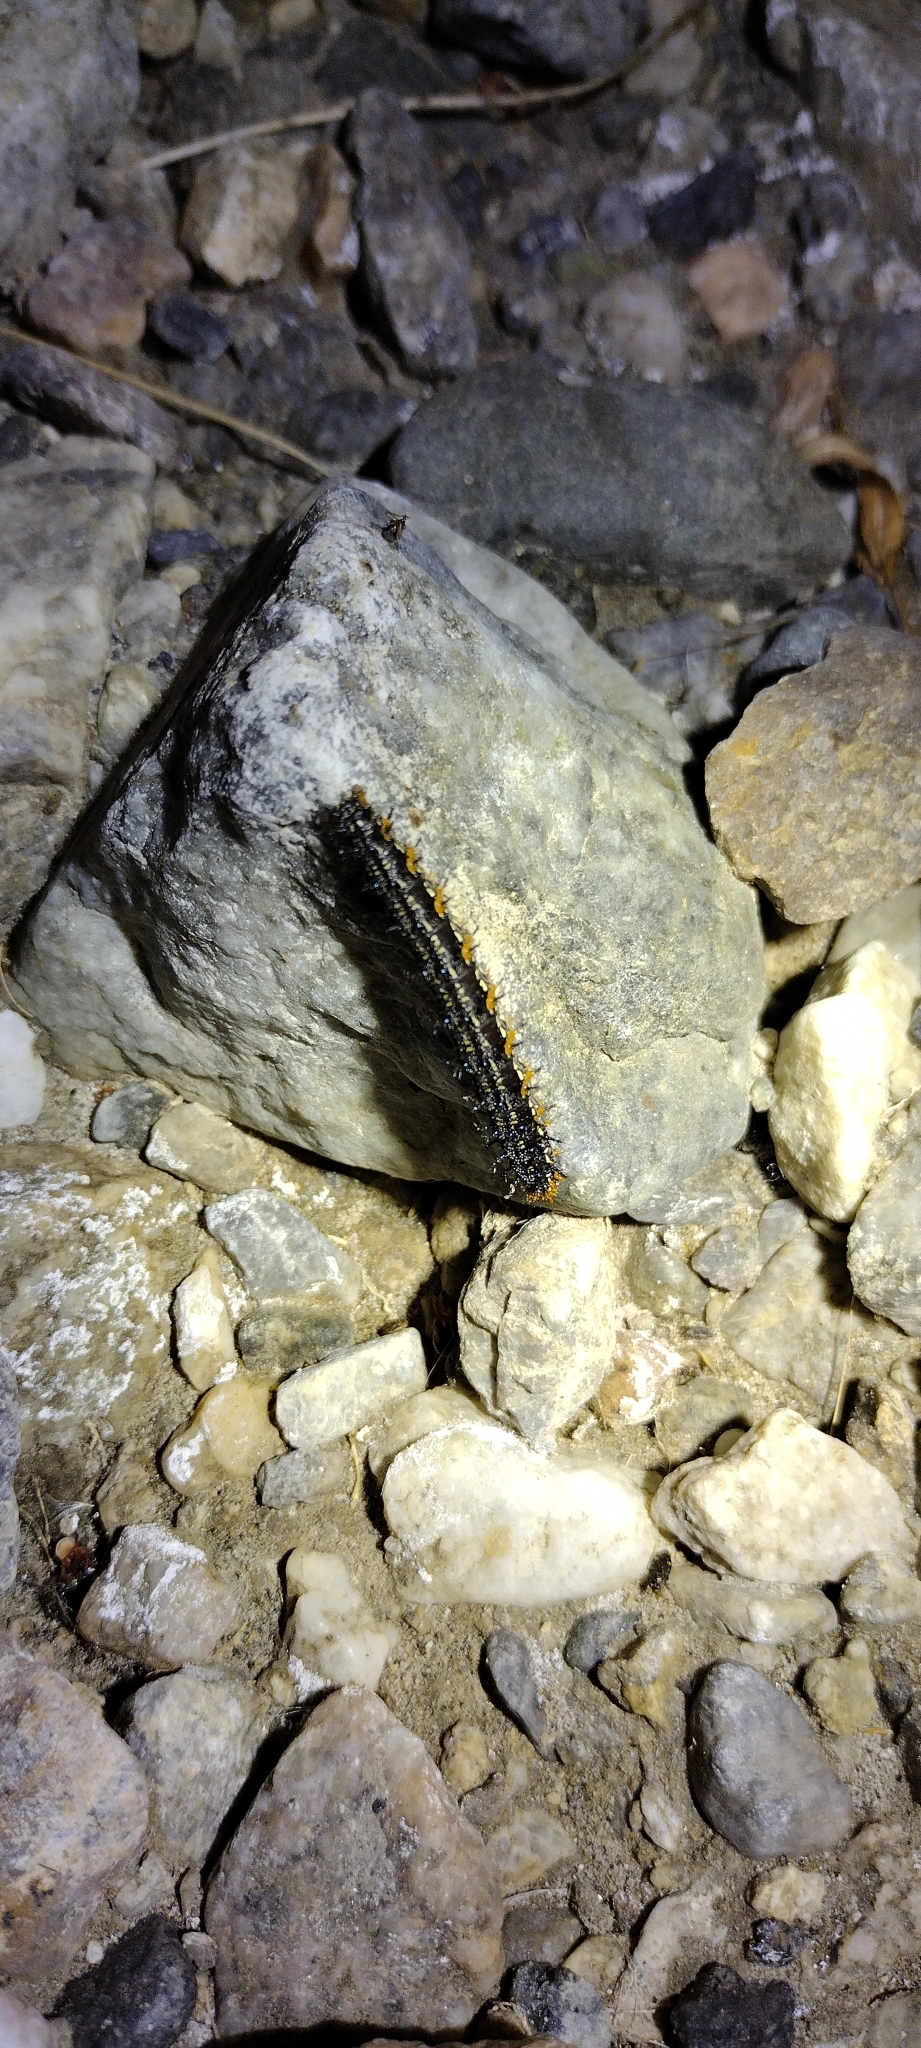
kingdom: Animalia
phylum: Arthropoda
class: Insecta
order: Lepidoptera
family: Nymphalidae
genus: Junonia
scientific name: Junonia grisea
